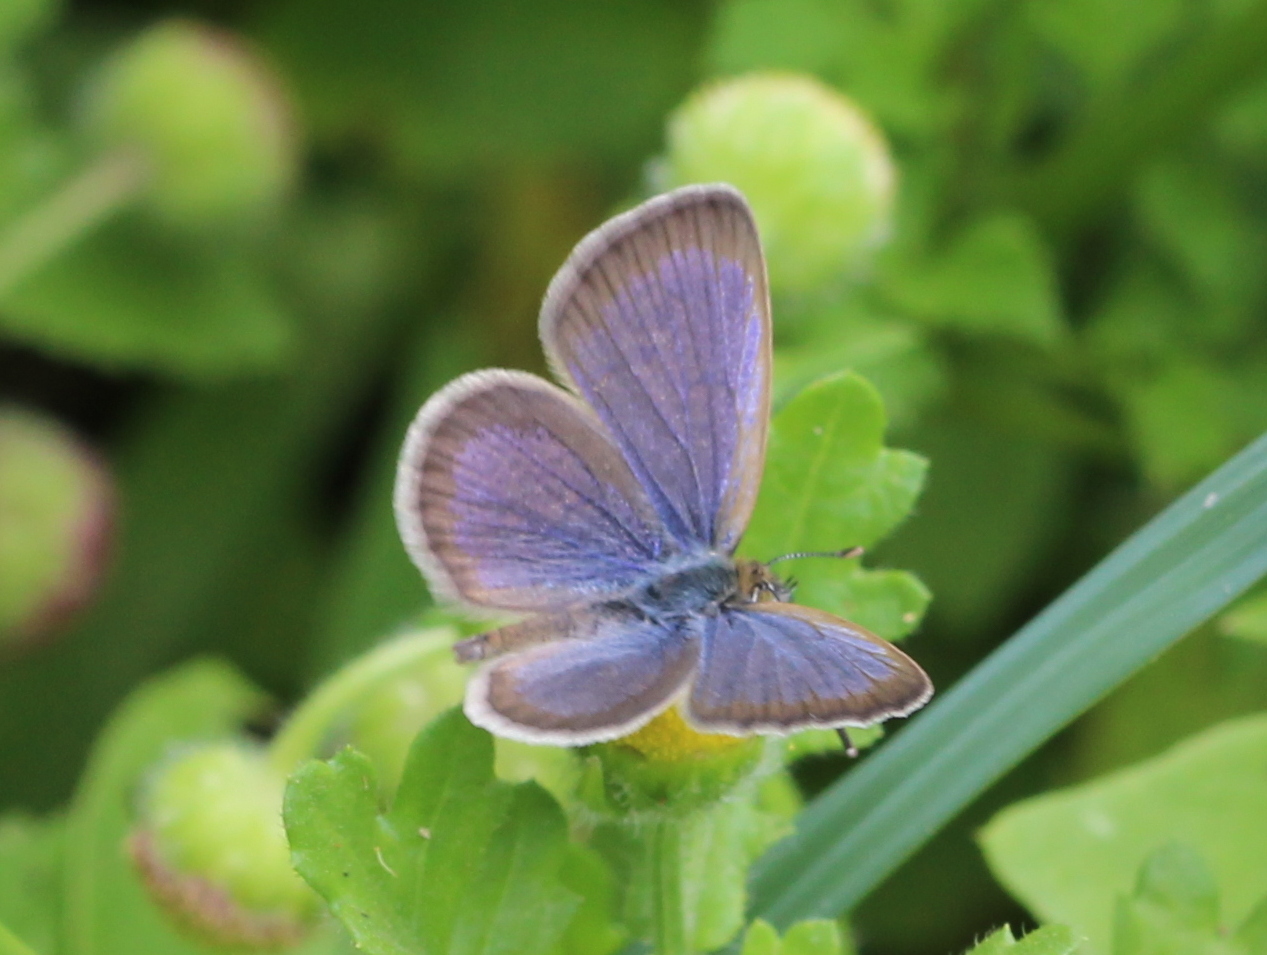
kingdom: Animalia
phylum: Arthropoda
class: Insecta
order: Lepidoptera
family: Lycaenidae
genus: Zizeeria
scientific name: Zizeeria karsandra
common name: Dark grass blue
